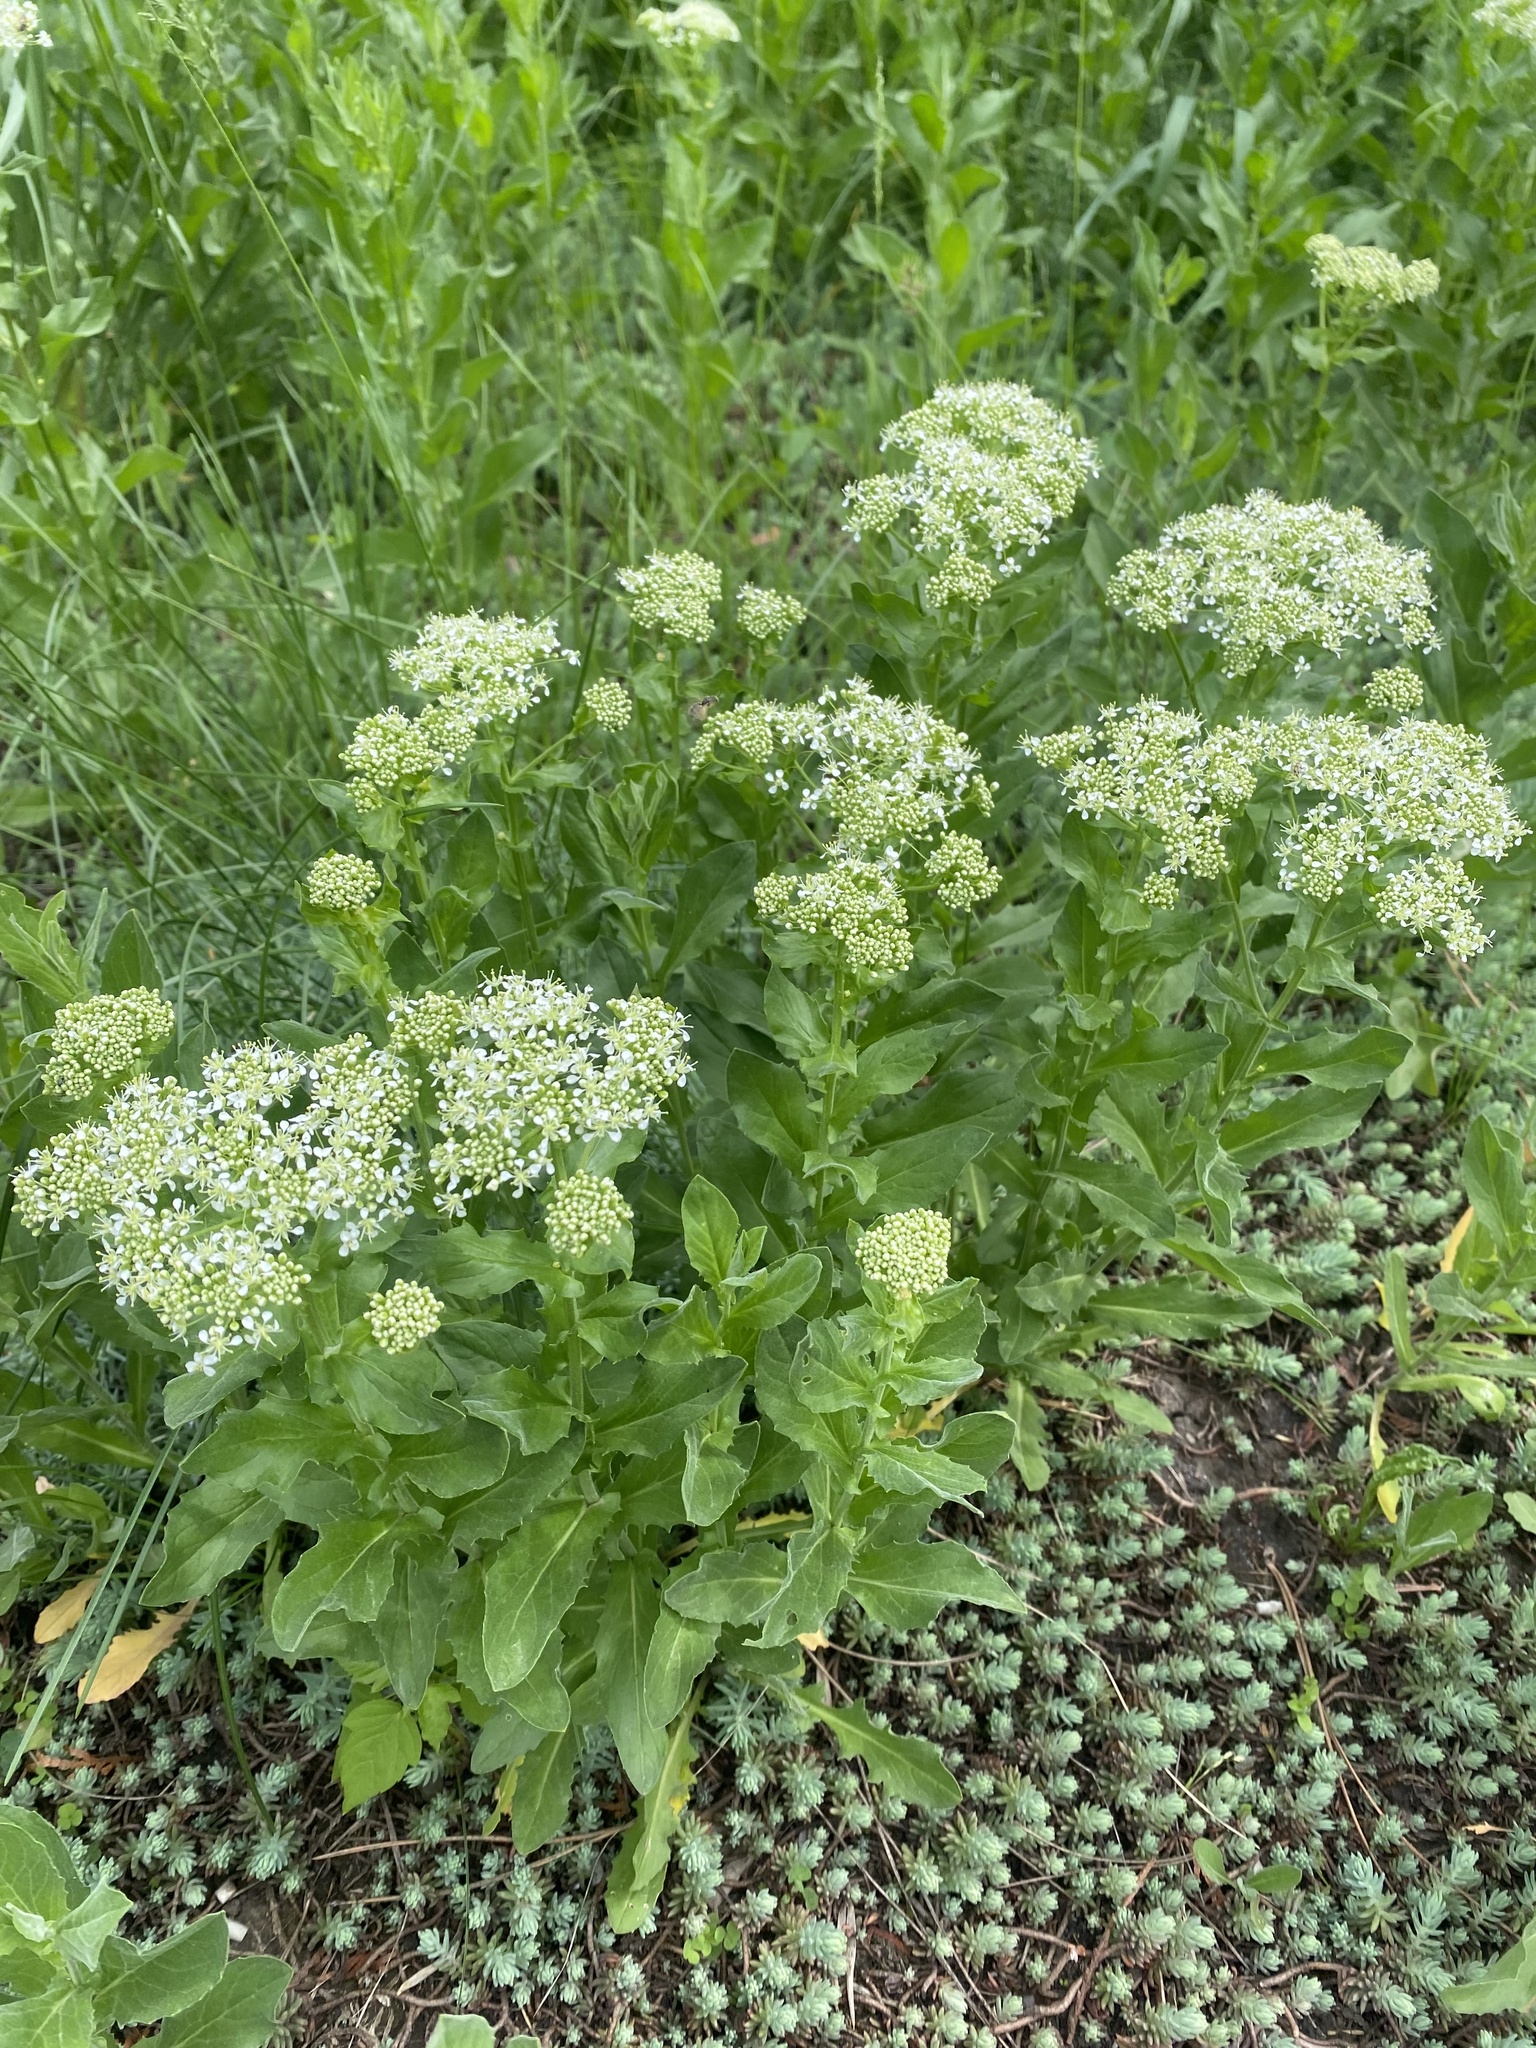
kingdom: Plantae
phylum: Tracheophyta
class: Magnoliopsida
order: Brassicales
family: Brassicaceae
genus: Lepidium
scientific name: Lepidium draba
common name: Hoary cress
